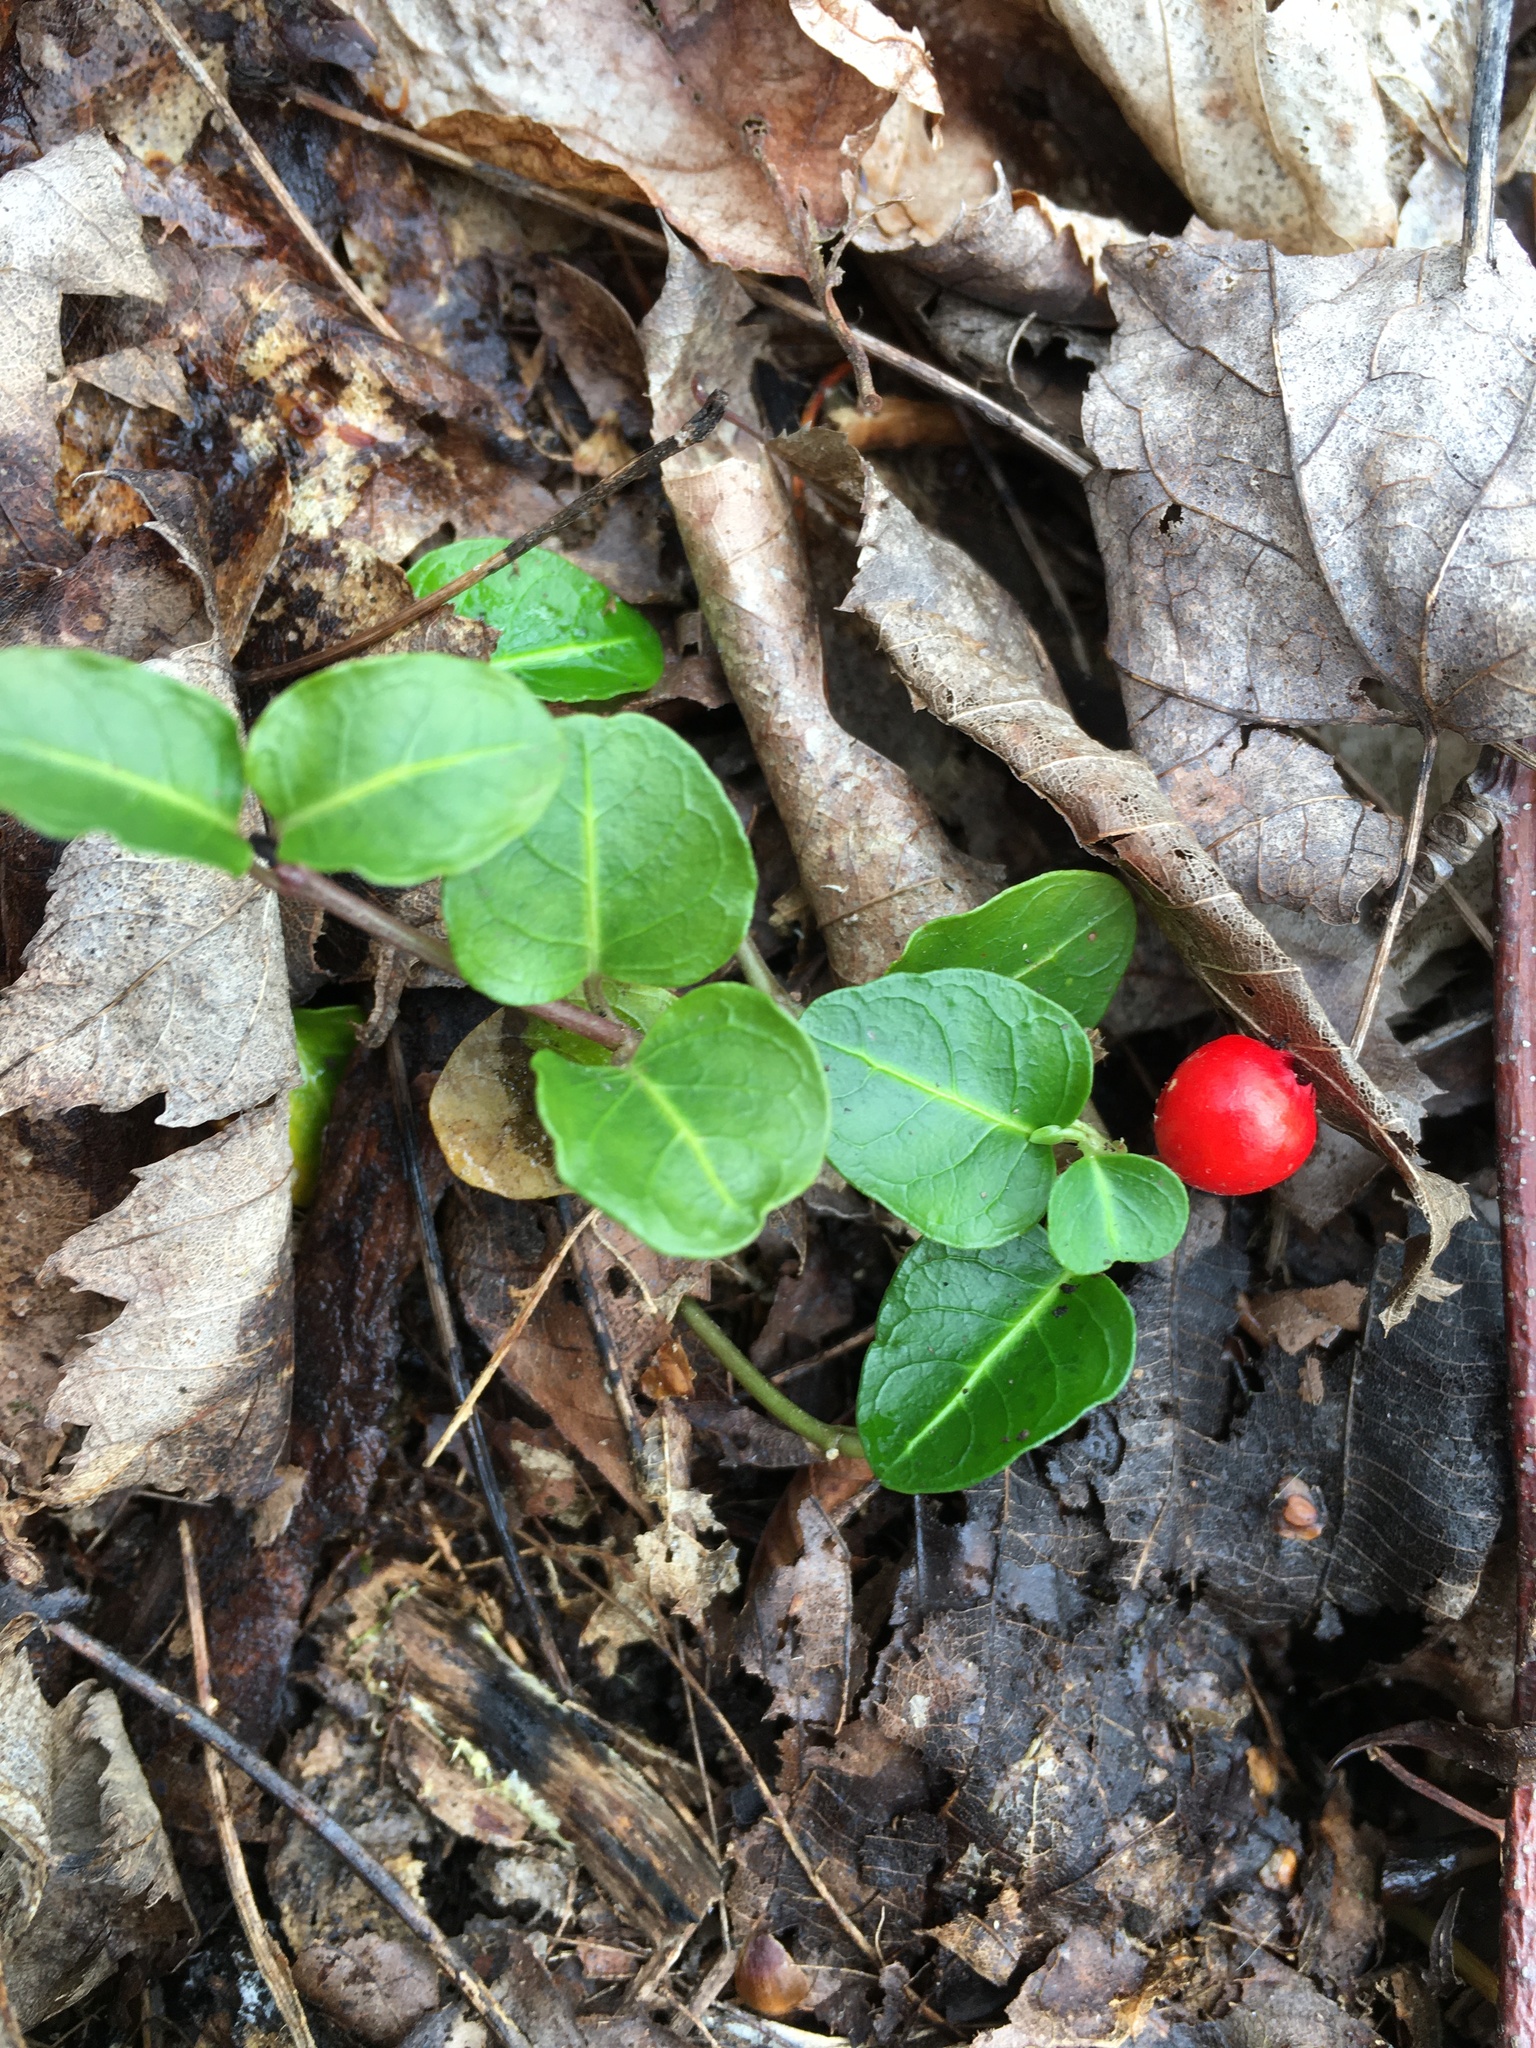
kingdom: Plantae
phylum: Tracheophyta
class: Magnoliopsida
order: Gentianales
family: Rubiaceae
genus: Mitchella
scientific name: Mitchella repens
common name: Partridge-berry
